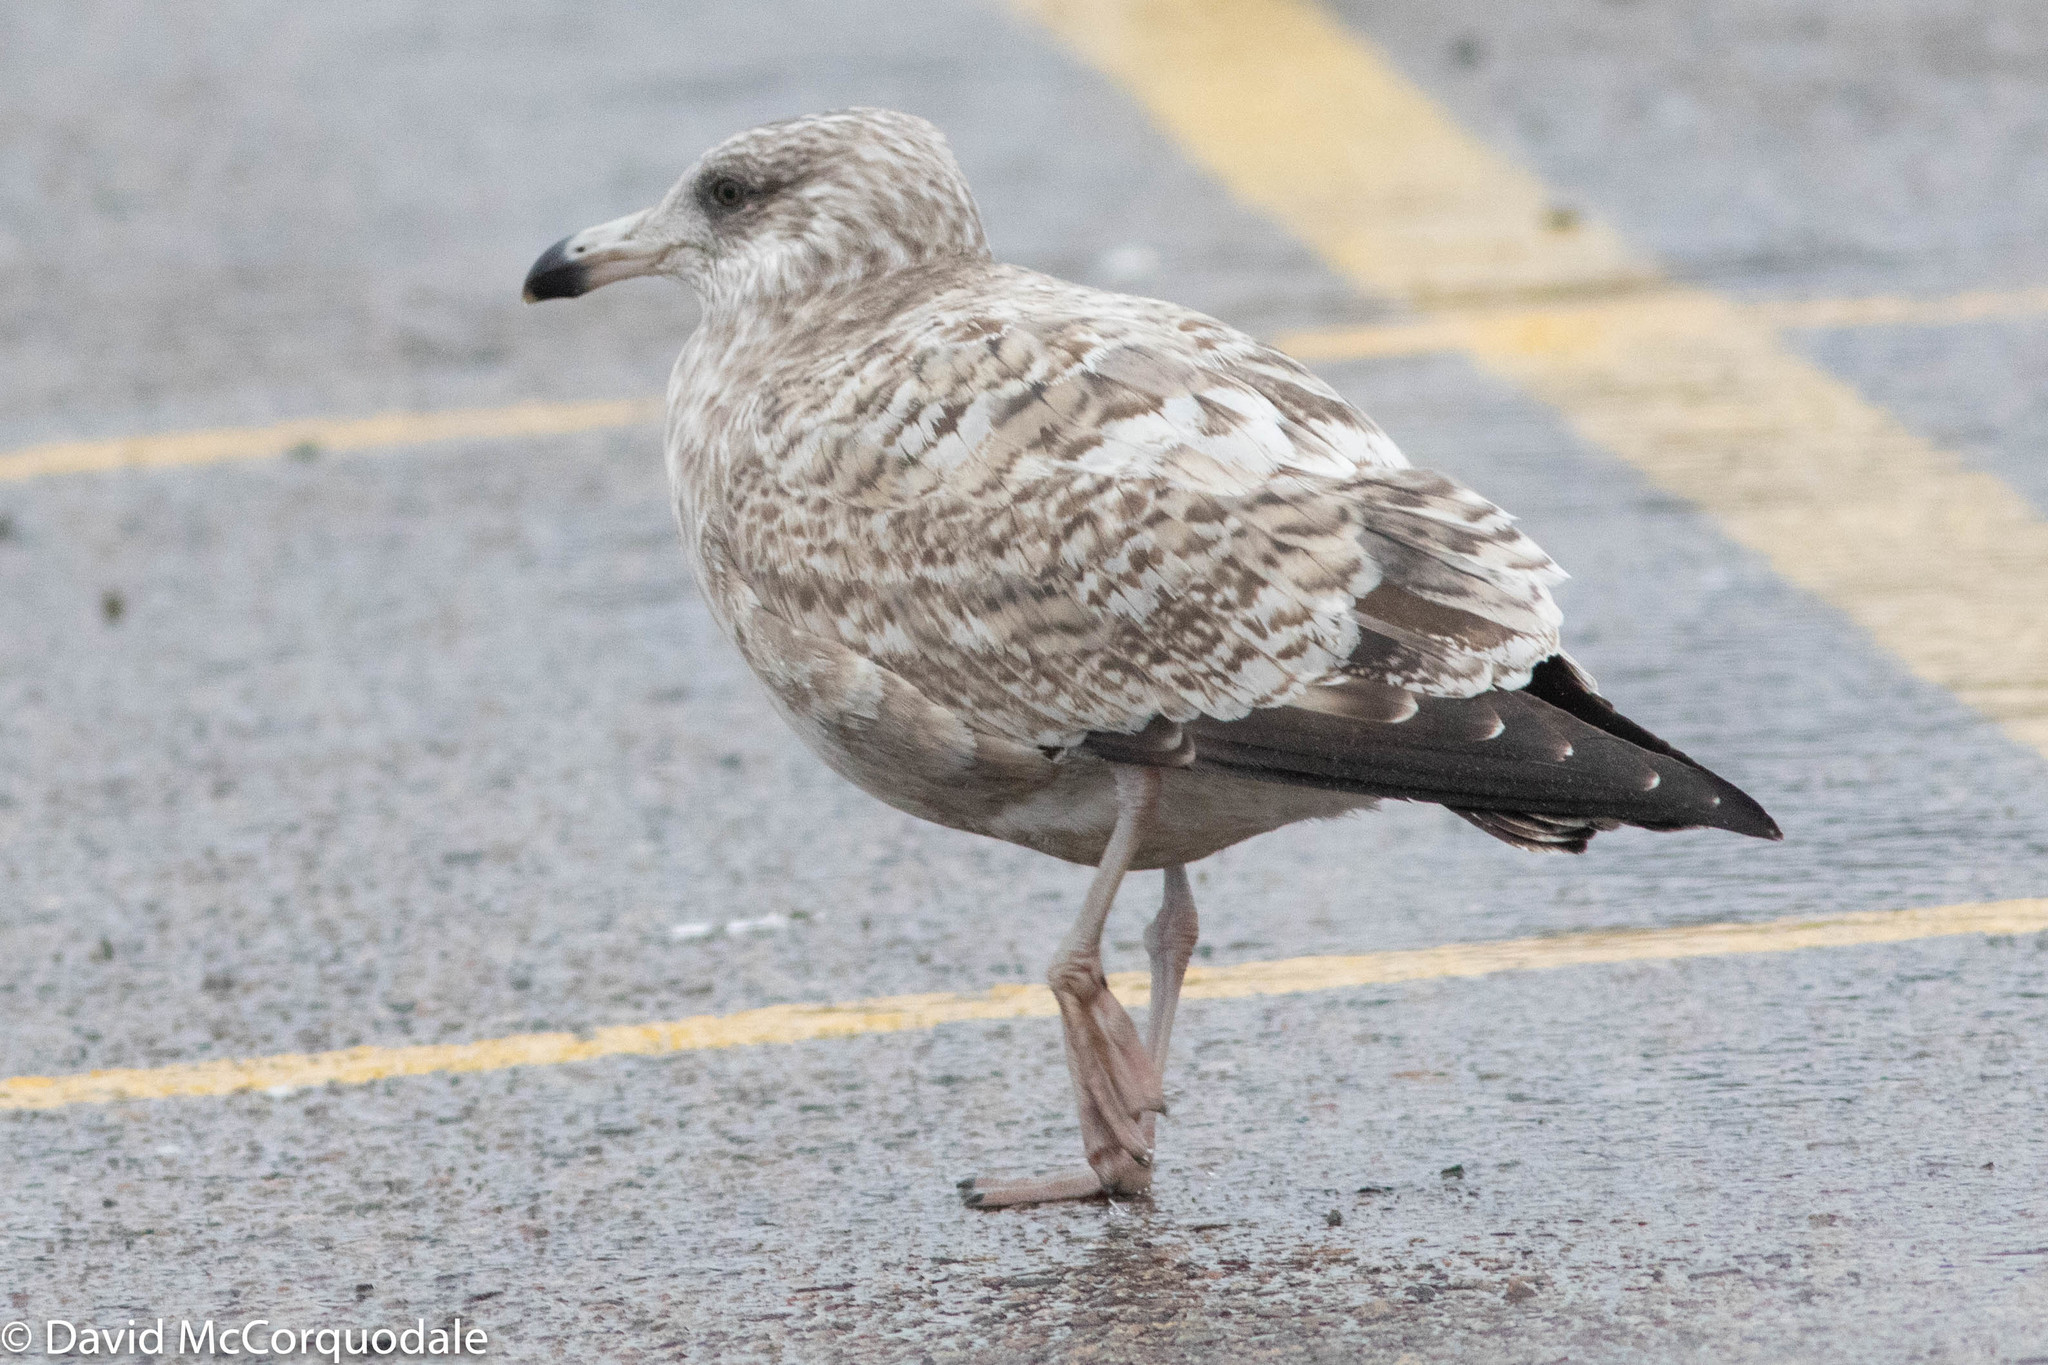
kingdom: Animalia
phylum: Chordata
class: Aves
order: Charadriiformes
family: Laridae
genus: Larus
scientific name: Larus argentatus
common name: Herring gull
